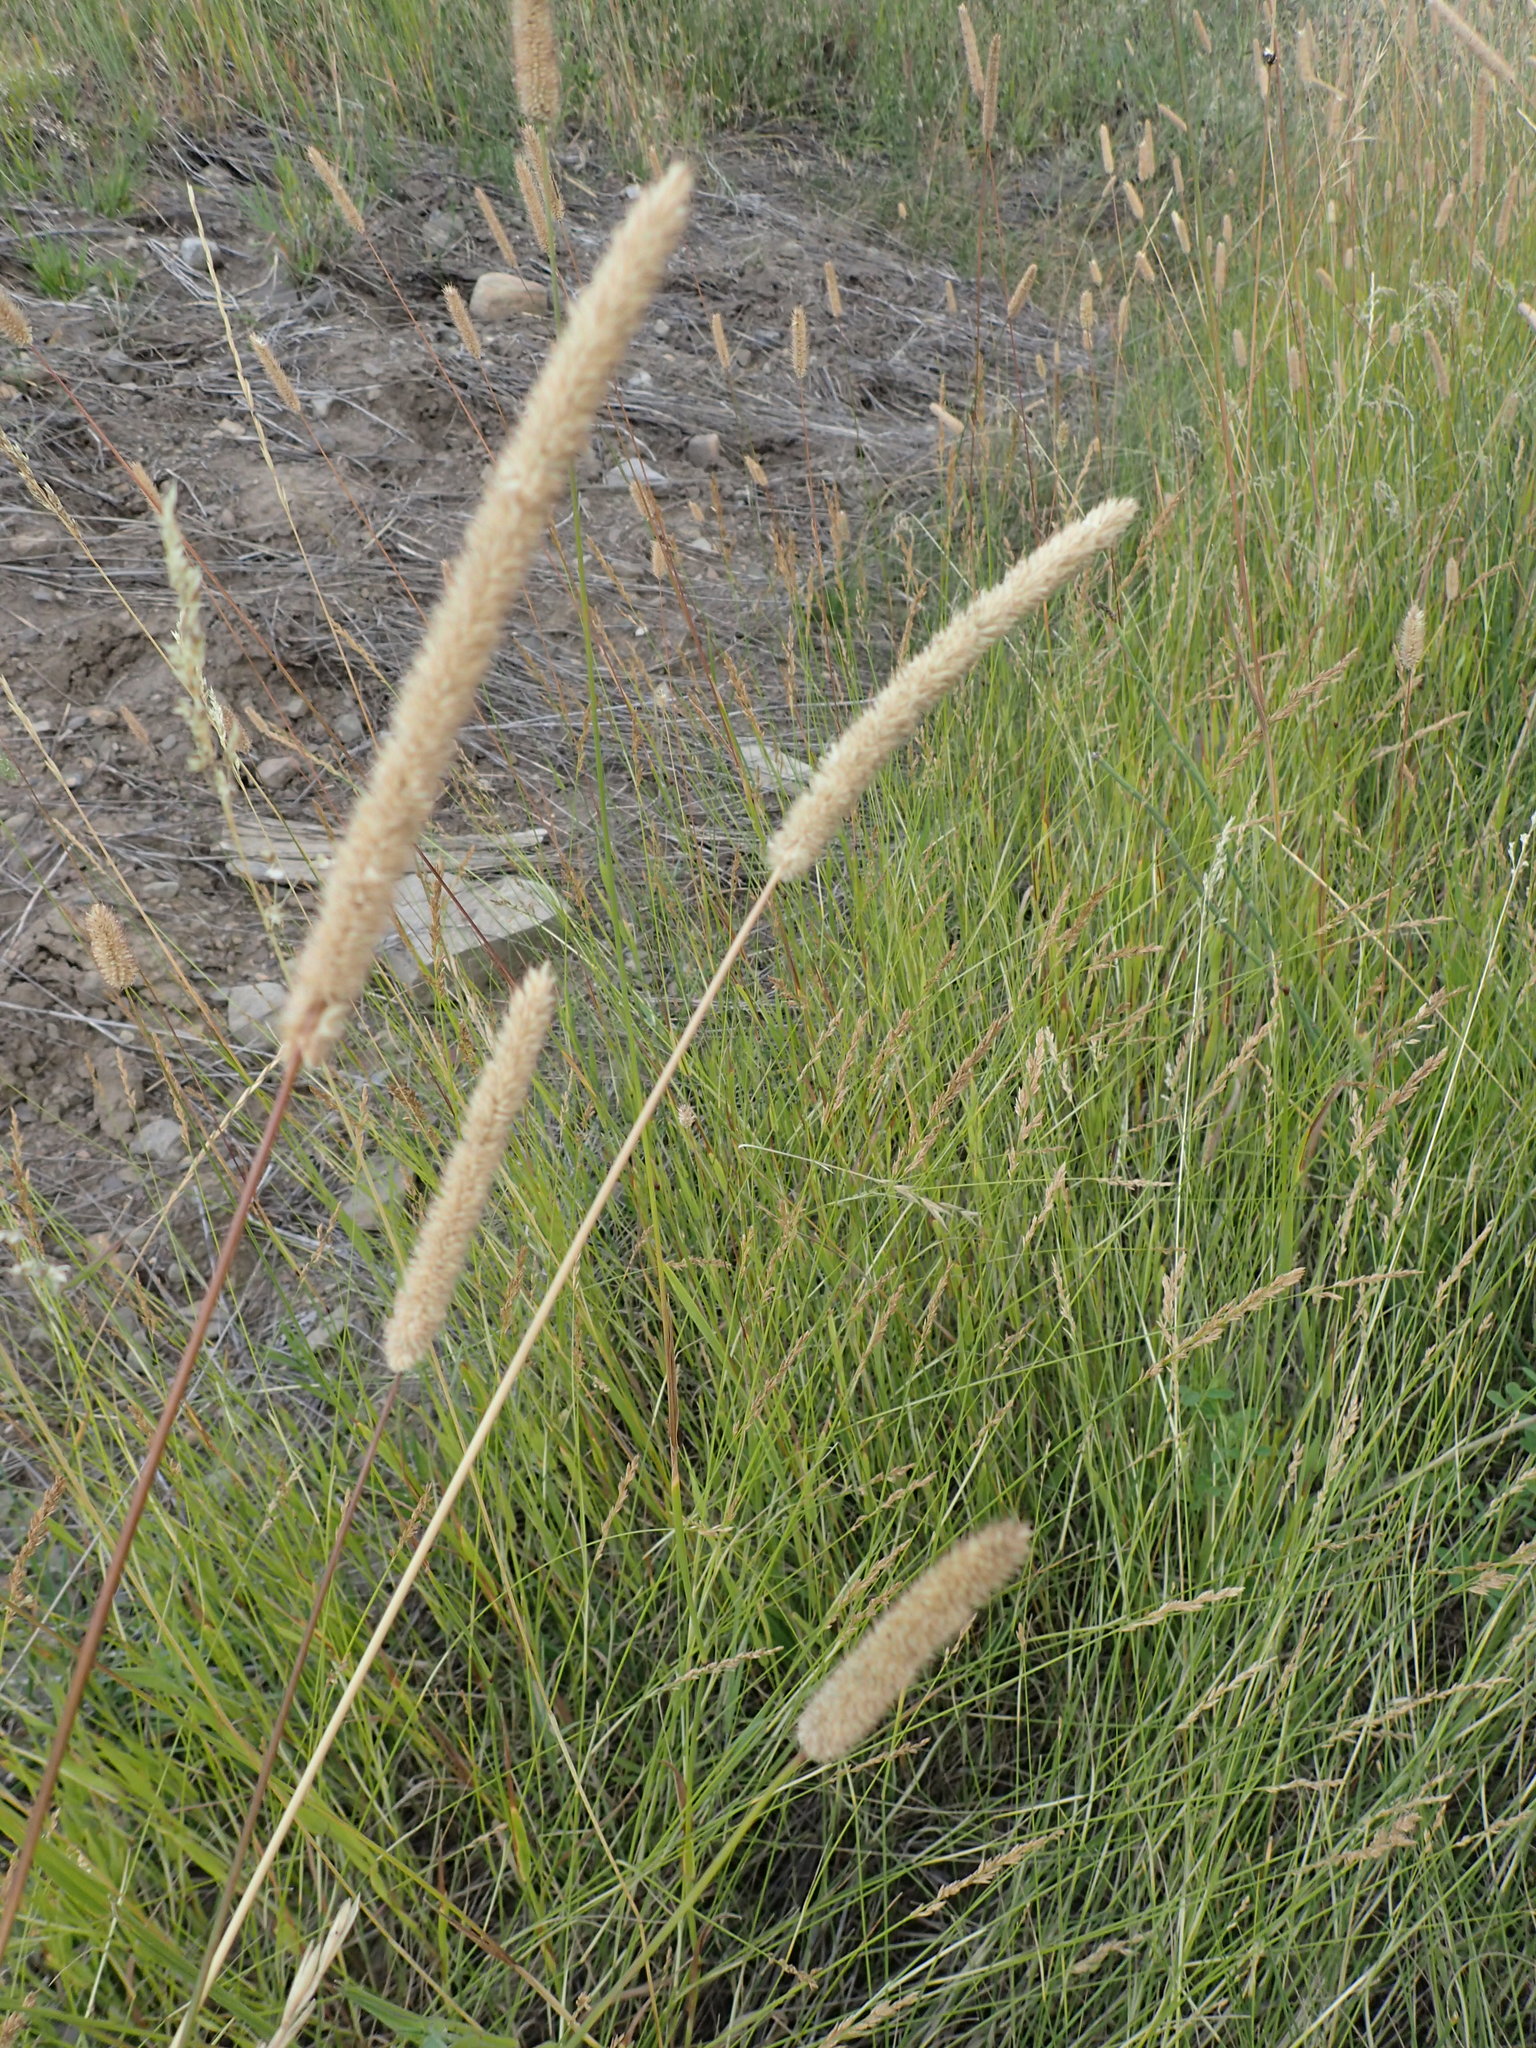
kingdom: Plantae
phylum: Tracheophyta
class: Liliopsida
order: Poales
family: Poaceae
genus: Phleum
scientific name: Phleum pratense
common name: Timothy grass
